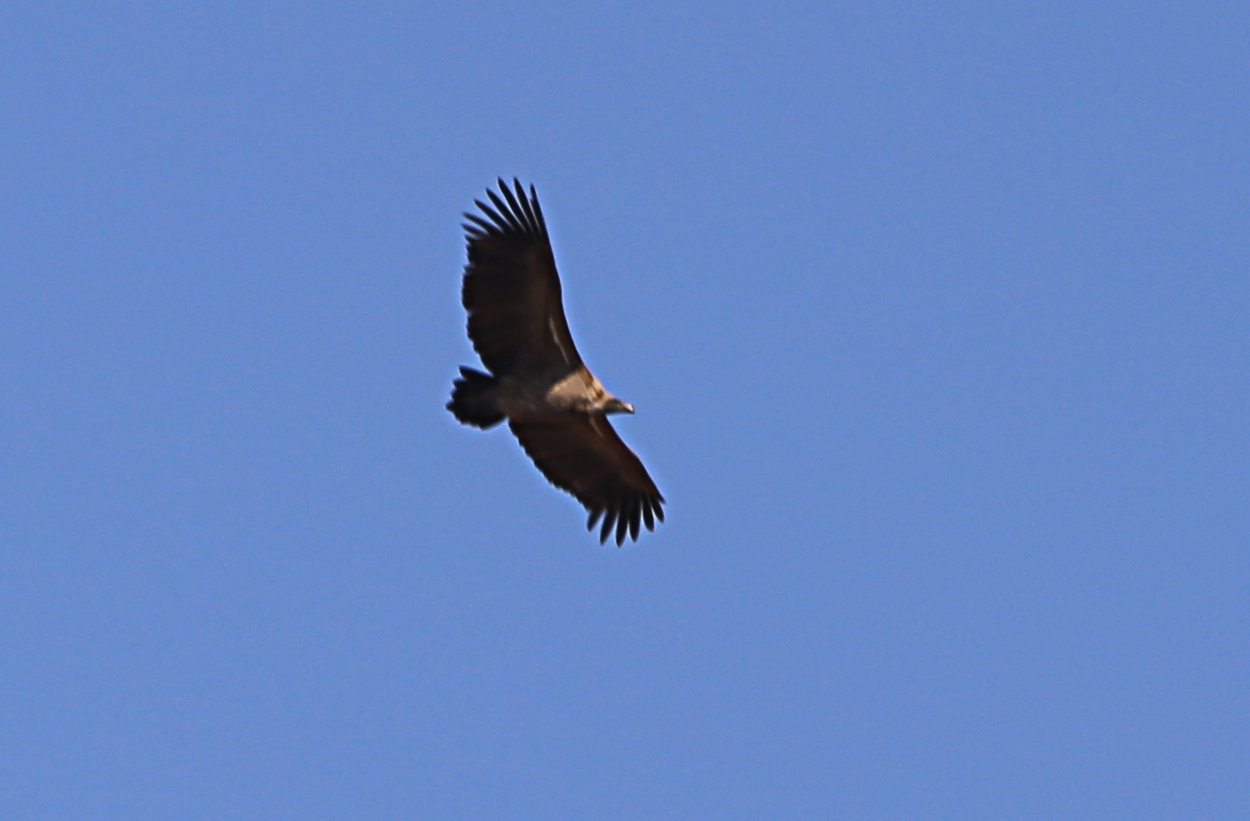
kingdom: Animalia
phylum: Chordata
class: Aves
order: Accipitriformes
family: Accipitridae
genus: Gyps
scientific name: Gyps africanus
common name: White-backed vulture
